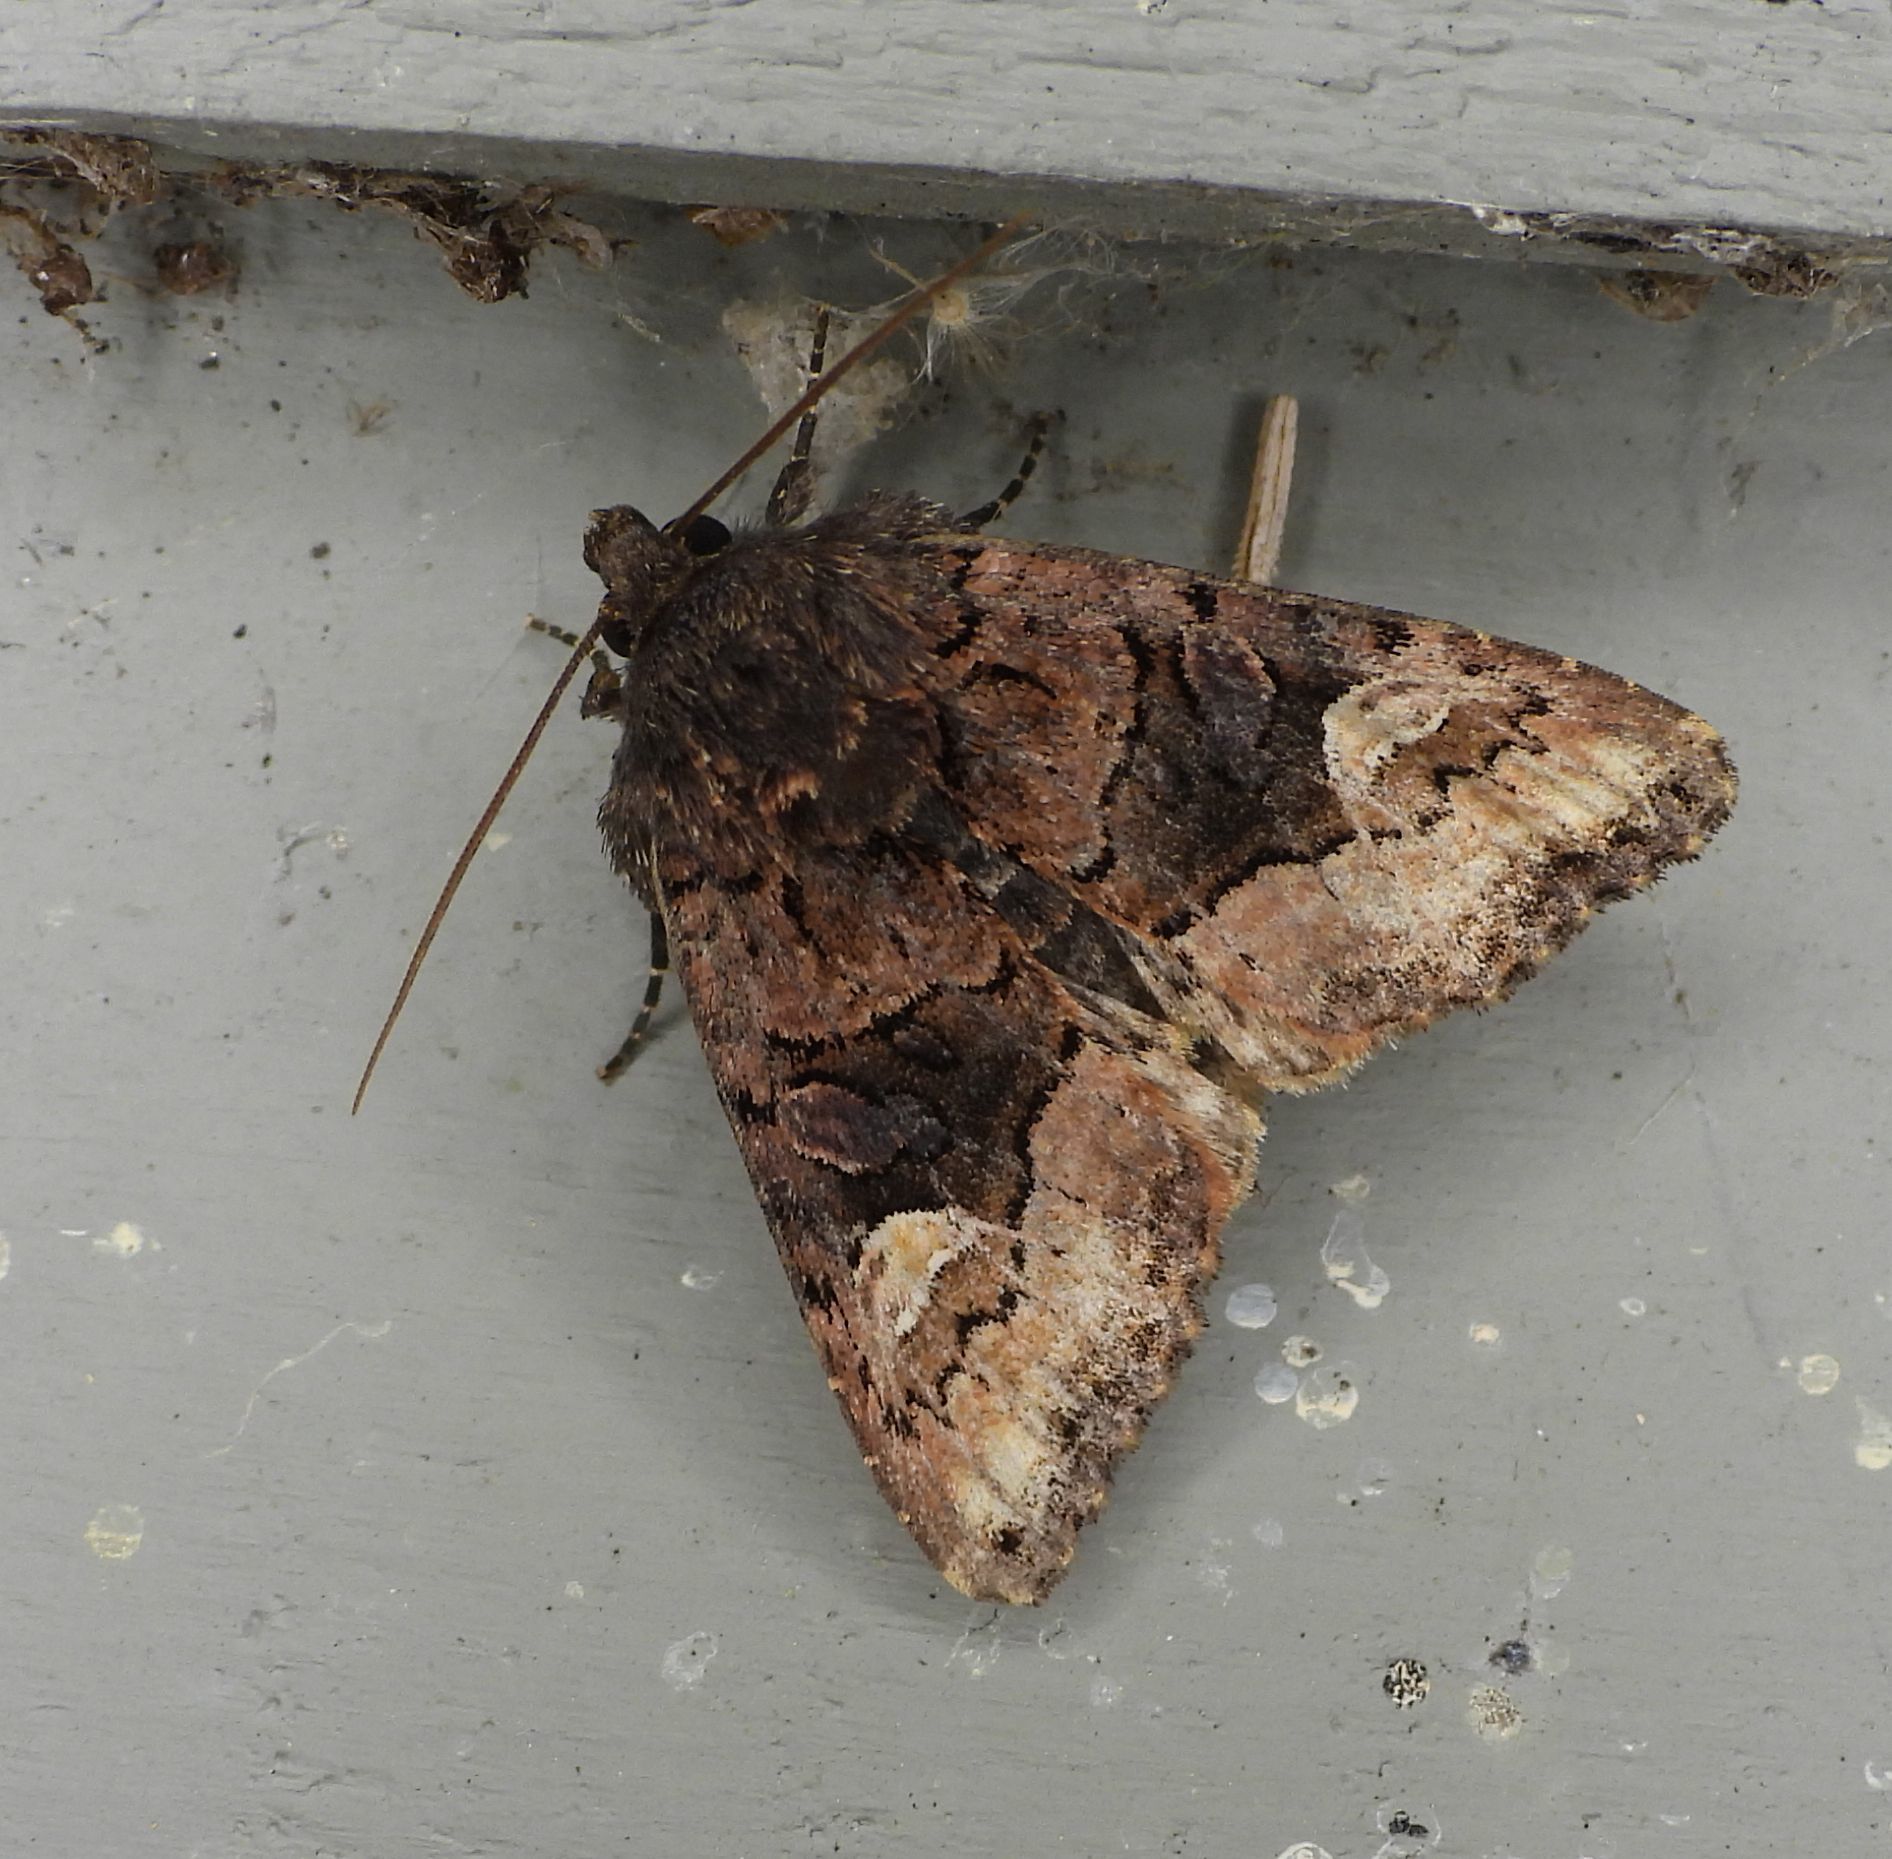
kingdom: Animalia
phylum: Arthropoda
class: Insecta
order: Lepidoptera
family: Noctuidae
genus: Euplexia
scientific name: Euplexia benesimilis
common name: American angle shades
